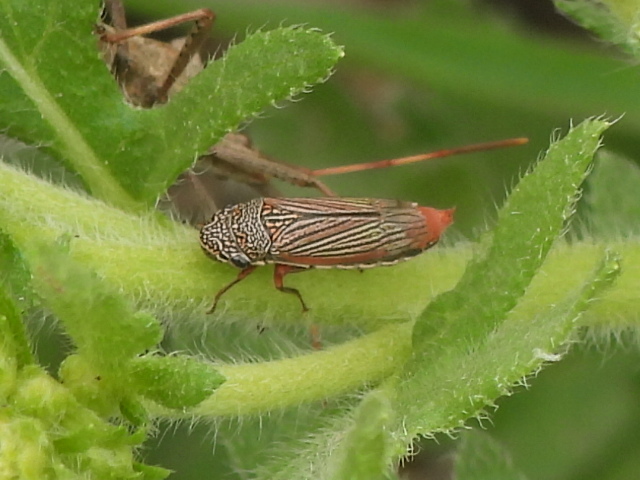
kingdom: Animalia
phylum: Arthropoda
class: Insecta
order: Hemiptera
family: Cicadellidae
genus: Cuerna
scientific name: Cuerna costalis
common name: Lateral-lined sharpshooter
